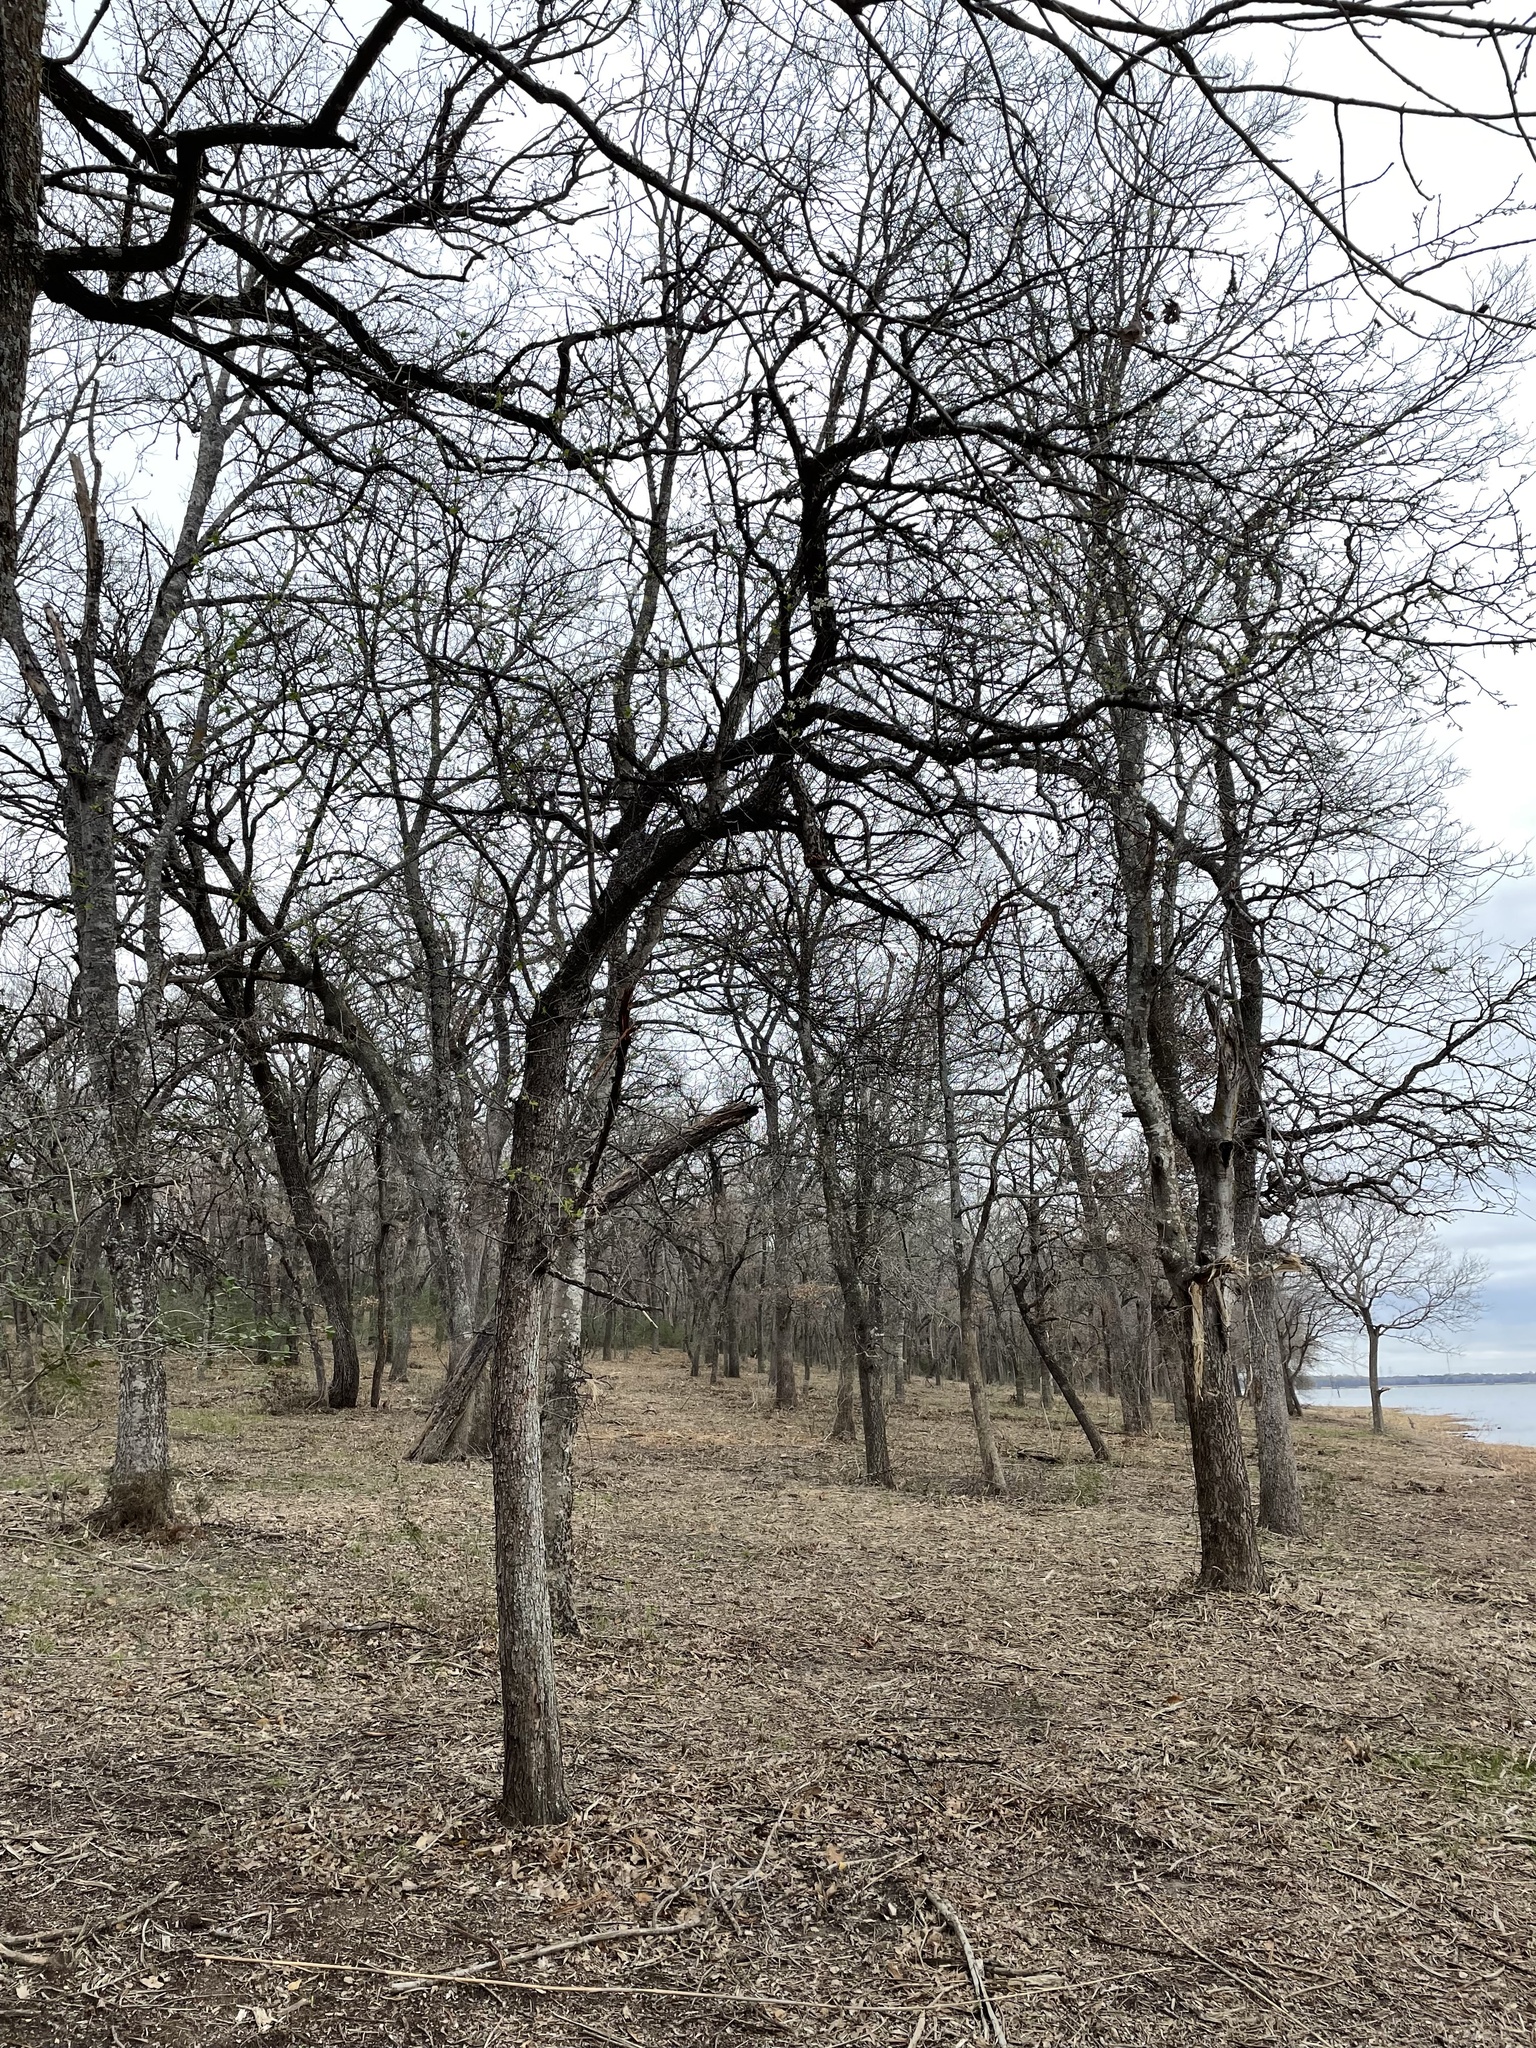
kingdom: Plantae
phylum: Tracheophyta
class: Magnoliopsida
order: Rosales
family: Rosaceae
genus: Prunus
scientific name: Prunus mexicana
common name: Mexican plum
